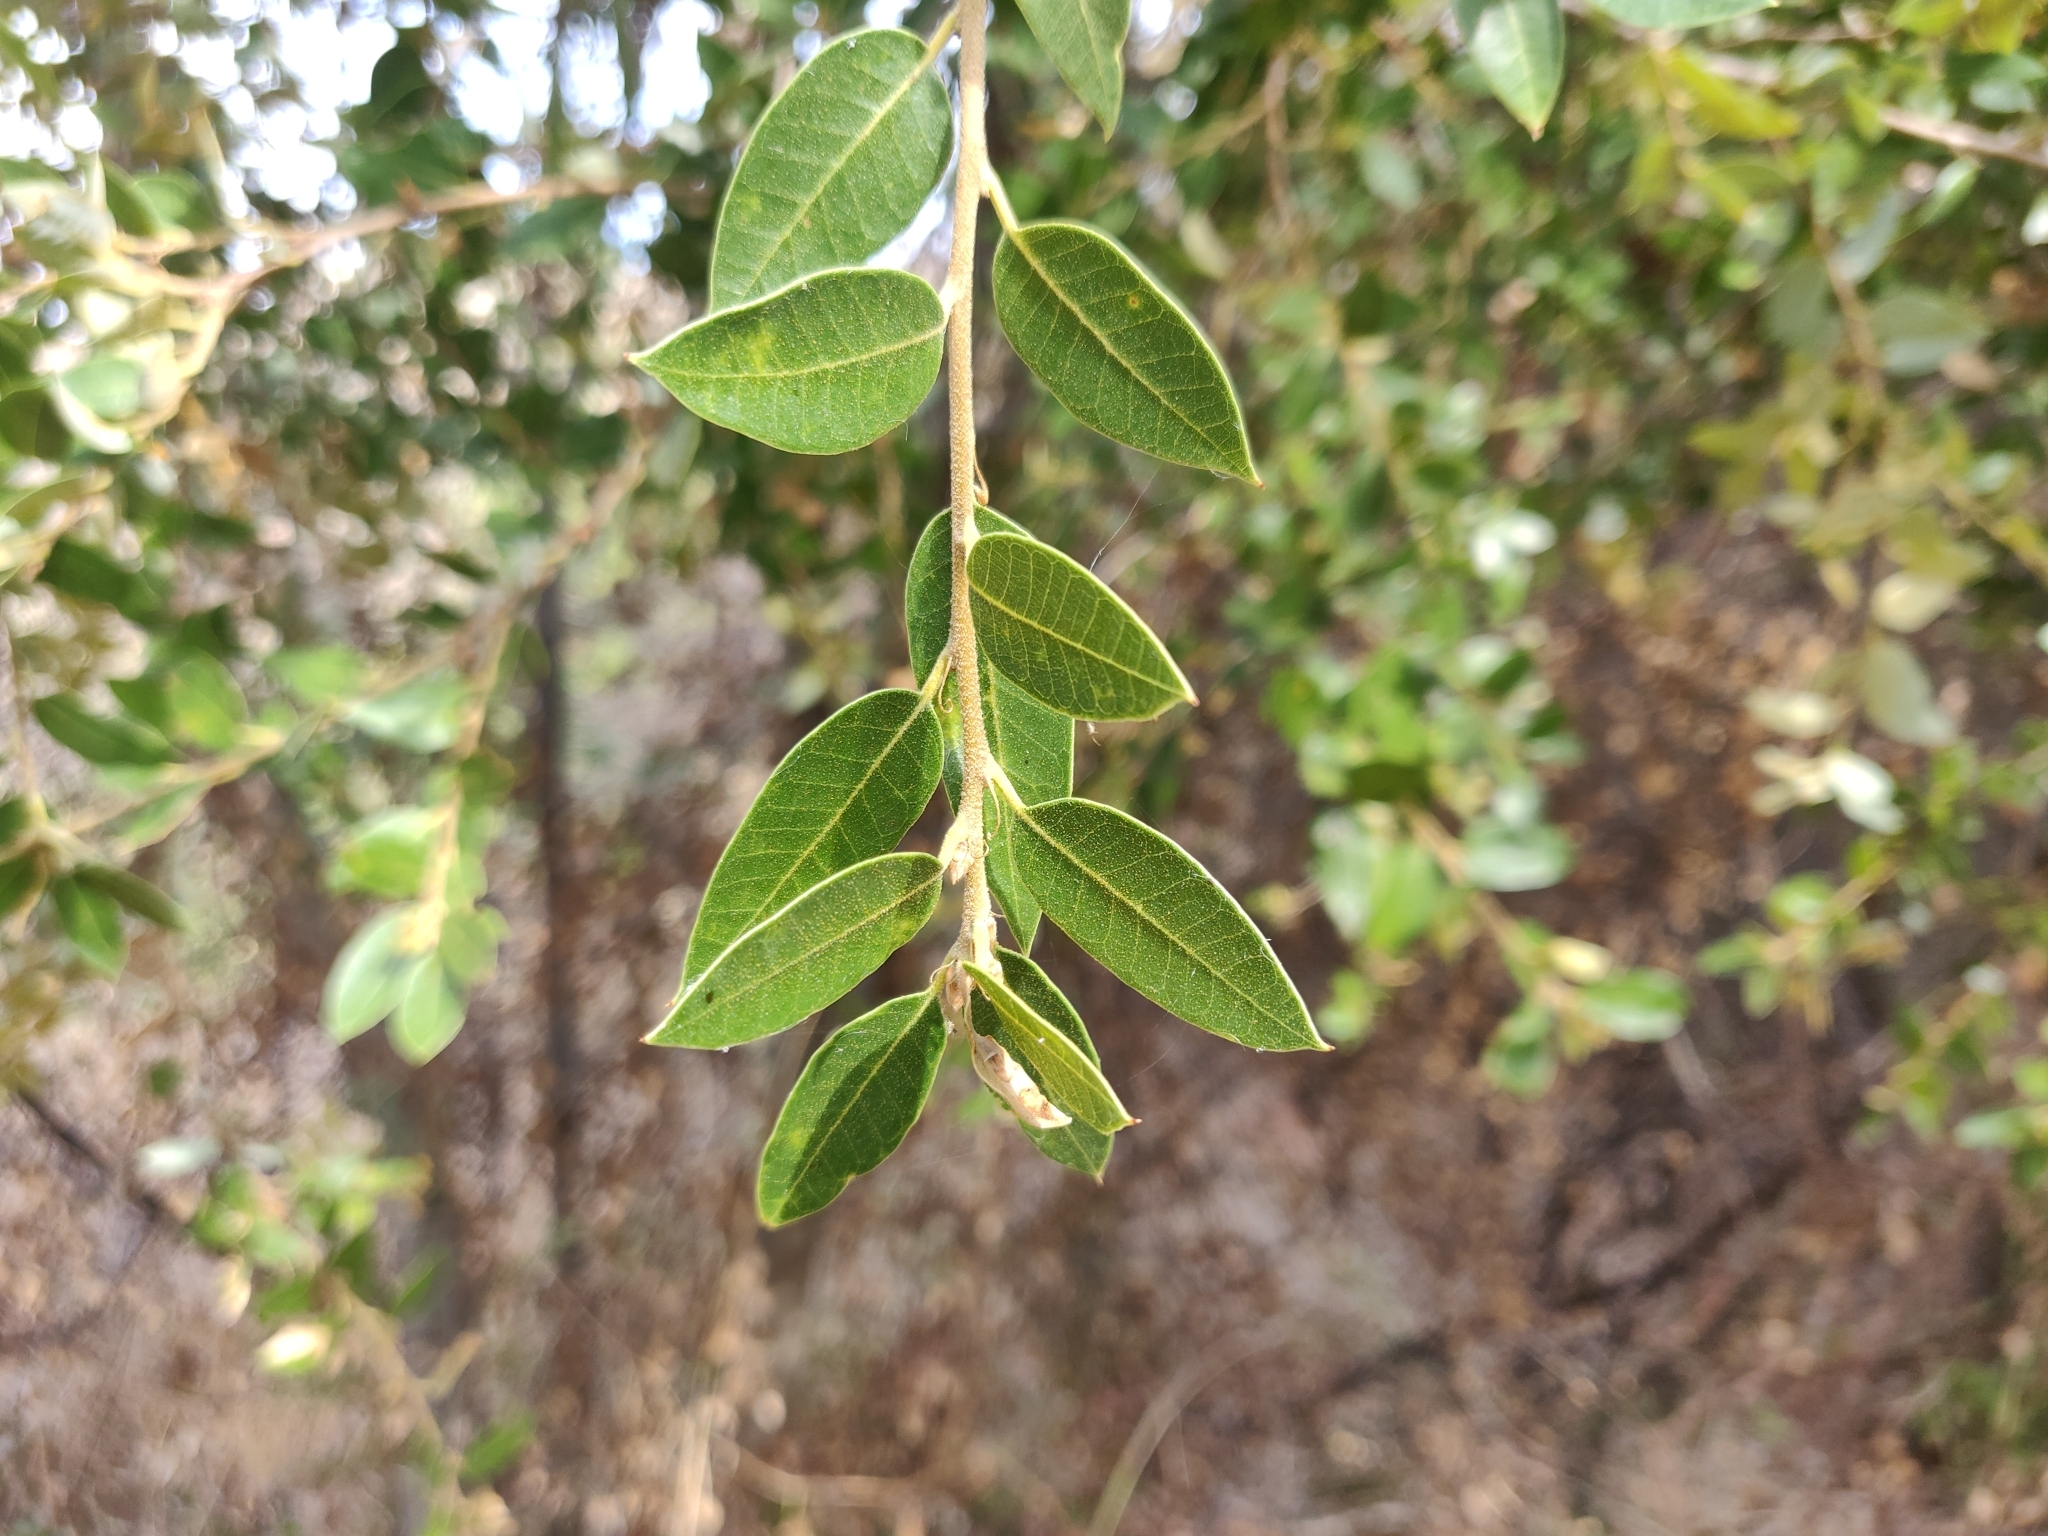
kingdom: Plantae
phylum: Tracheophyta
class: Magnoliopsida
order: Fagales
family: Fagaceae
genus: Quercus
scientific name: Quercus chrysolepis
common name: Canyon live oak
